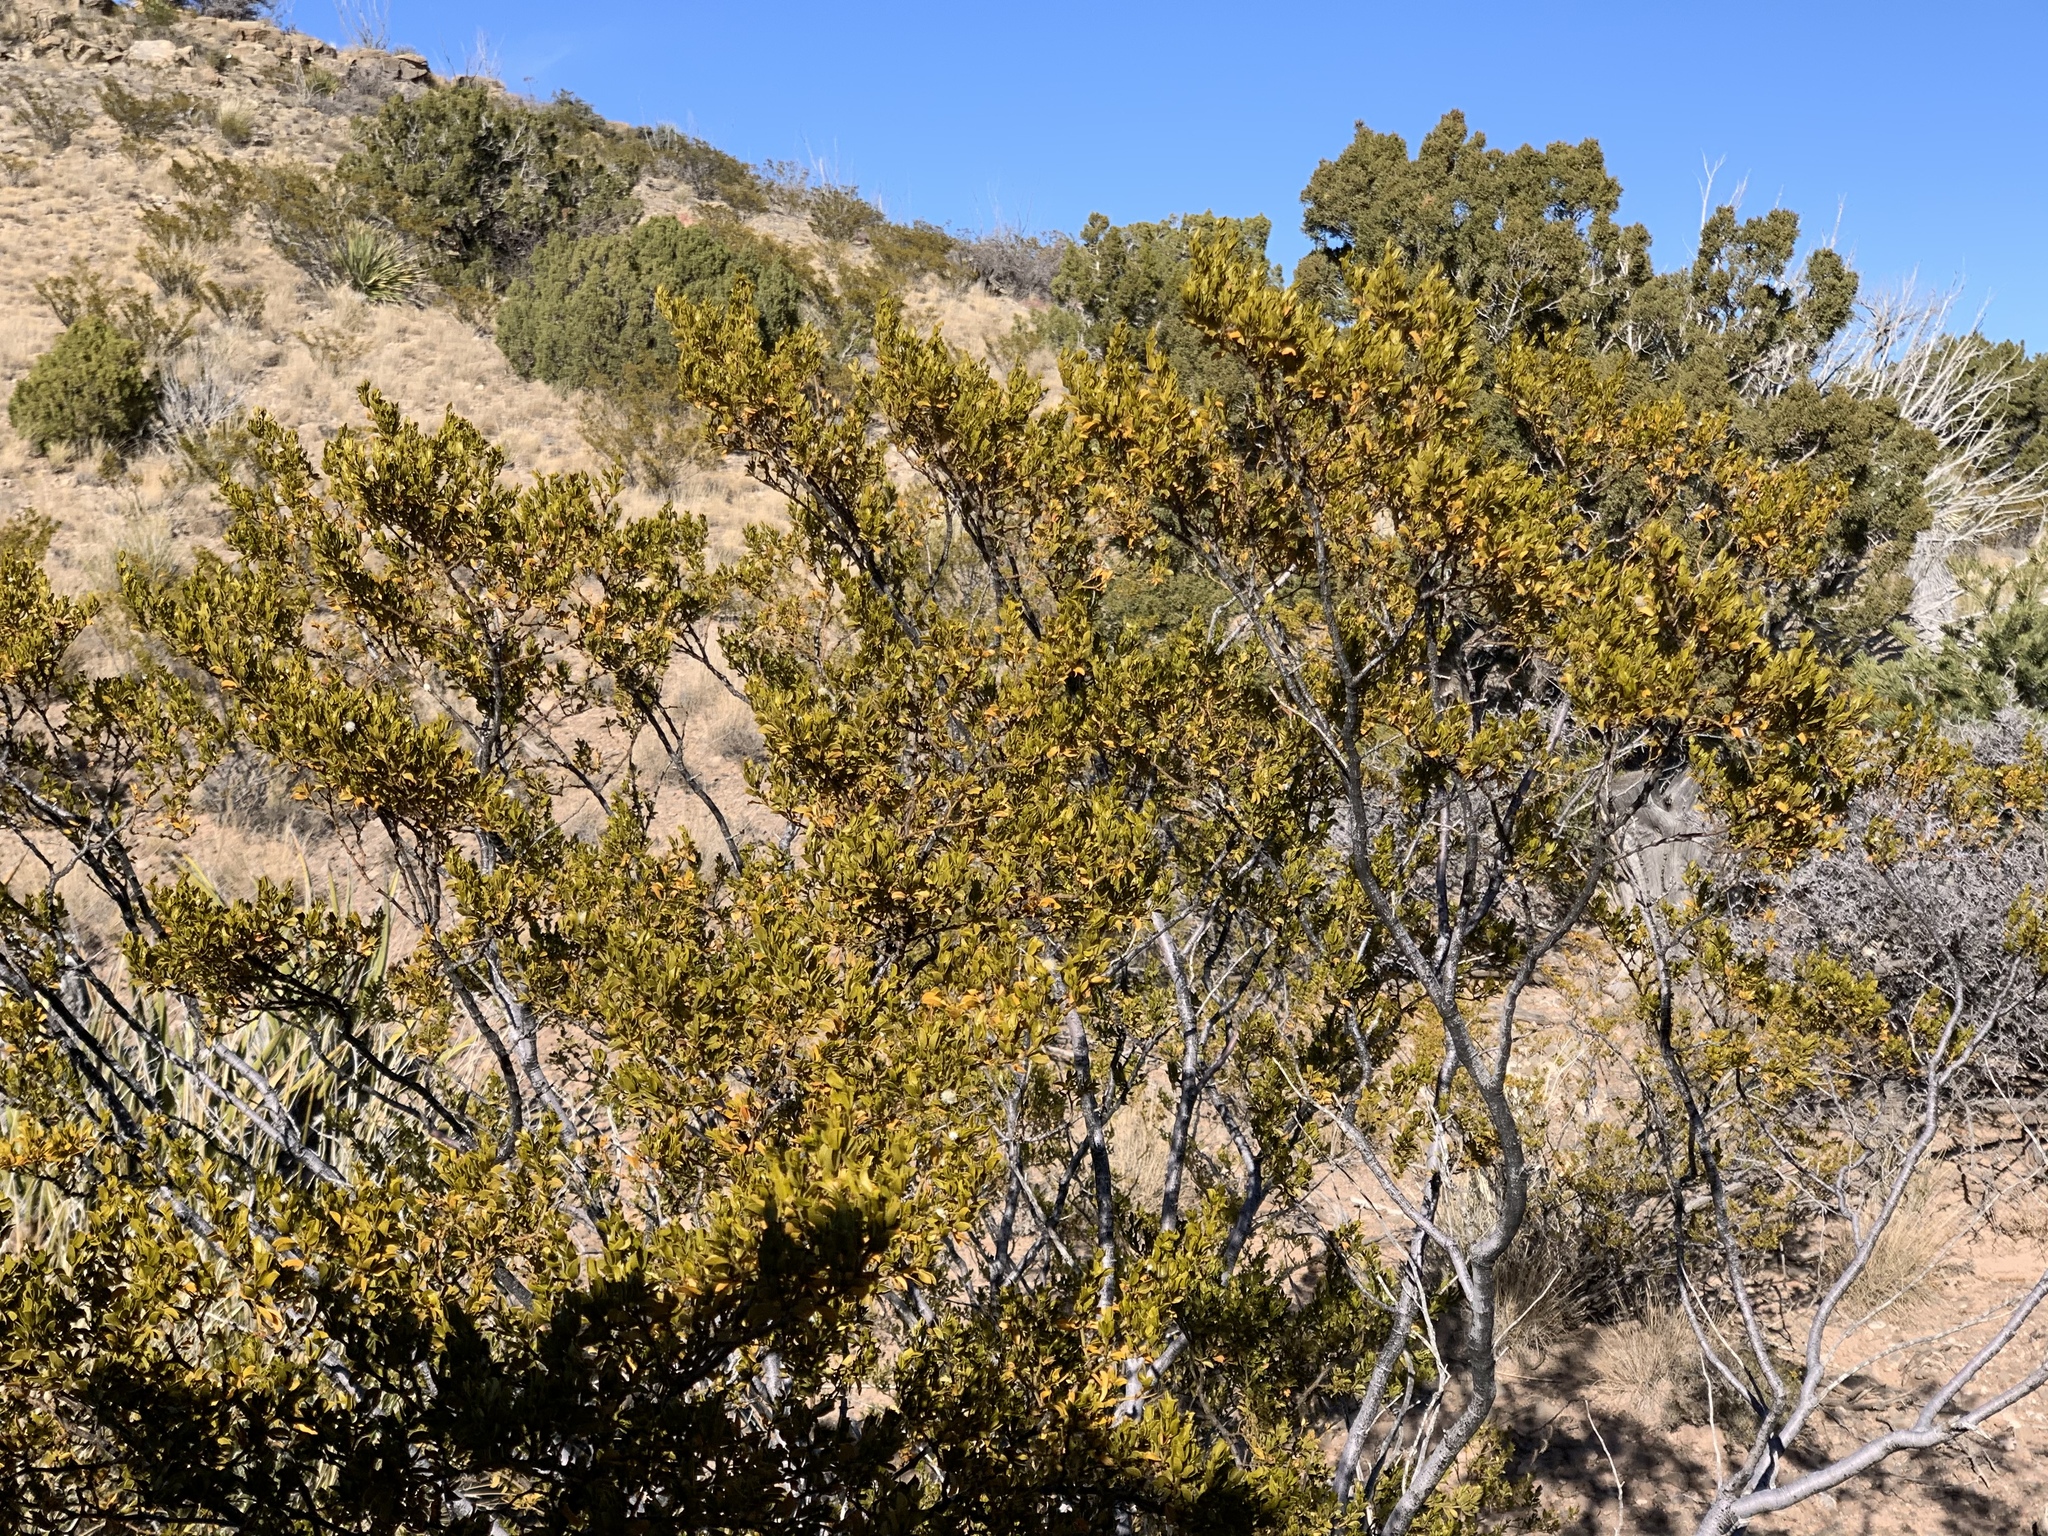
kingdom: Plantae
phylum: Tracheophyta
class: Magnoliopsida
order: Zygophyllales
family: Zygophyllaceae
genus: Larrea
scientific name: Larrea tridentata
